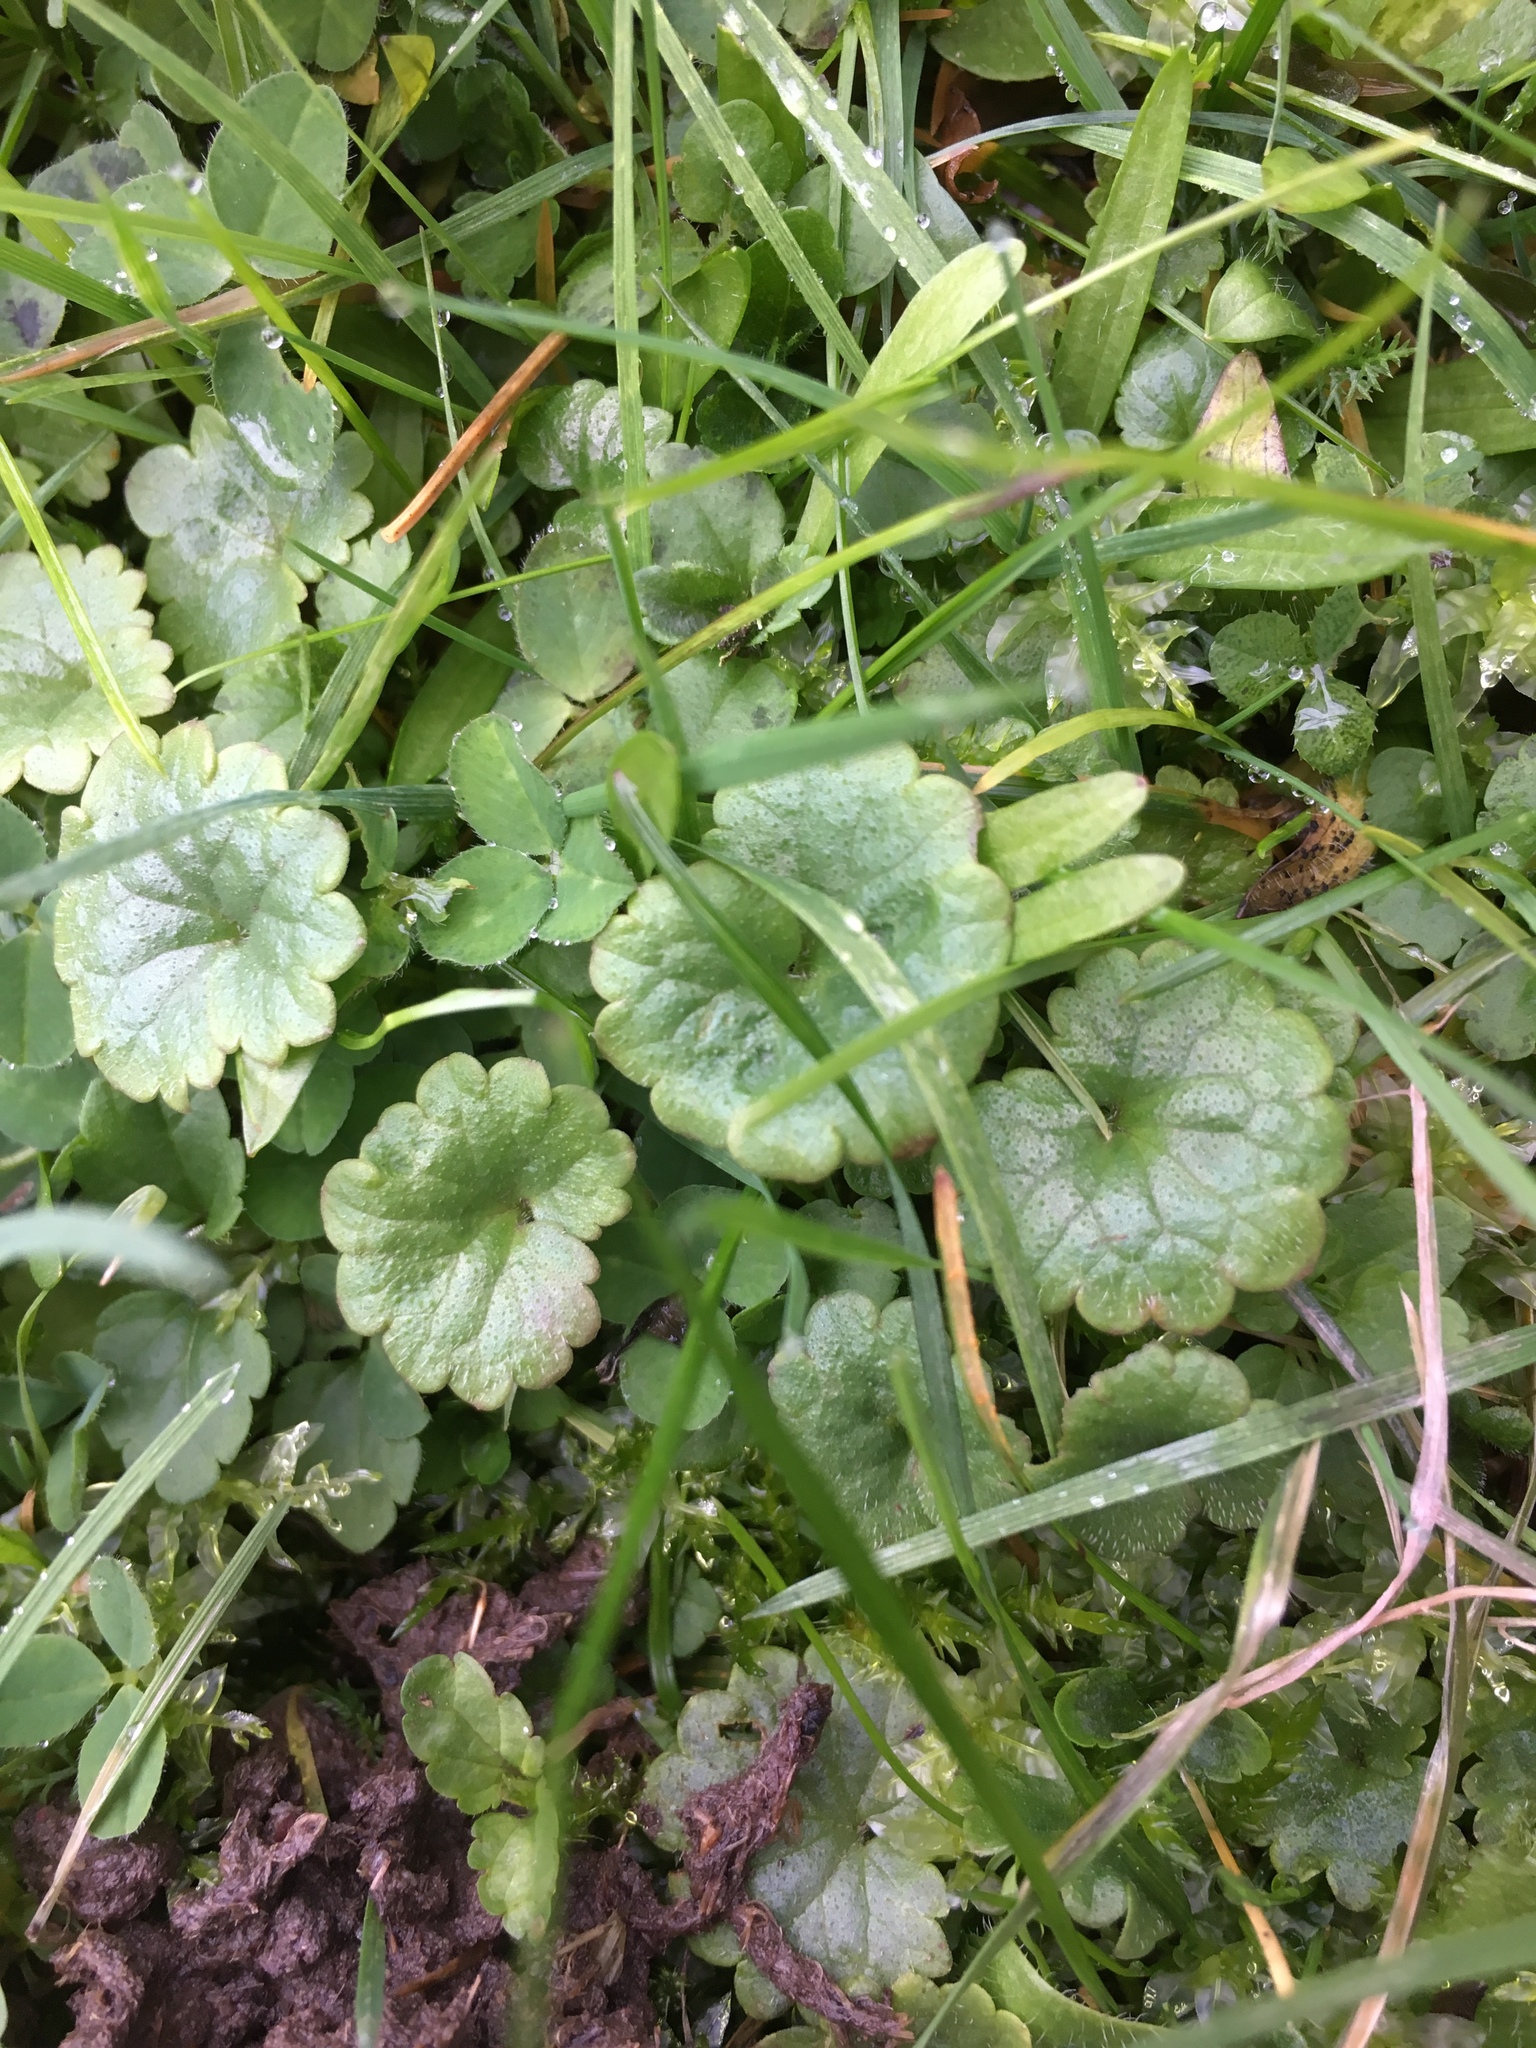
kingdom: Plantae
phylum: Tracheophyta
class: Magnoliopsida
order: Lamiales
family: Lamiaceae
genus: Glechoma
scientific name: Glechoma hederacea
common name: Ground ivy
